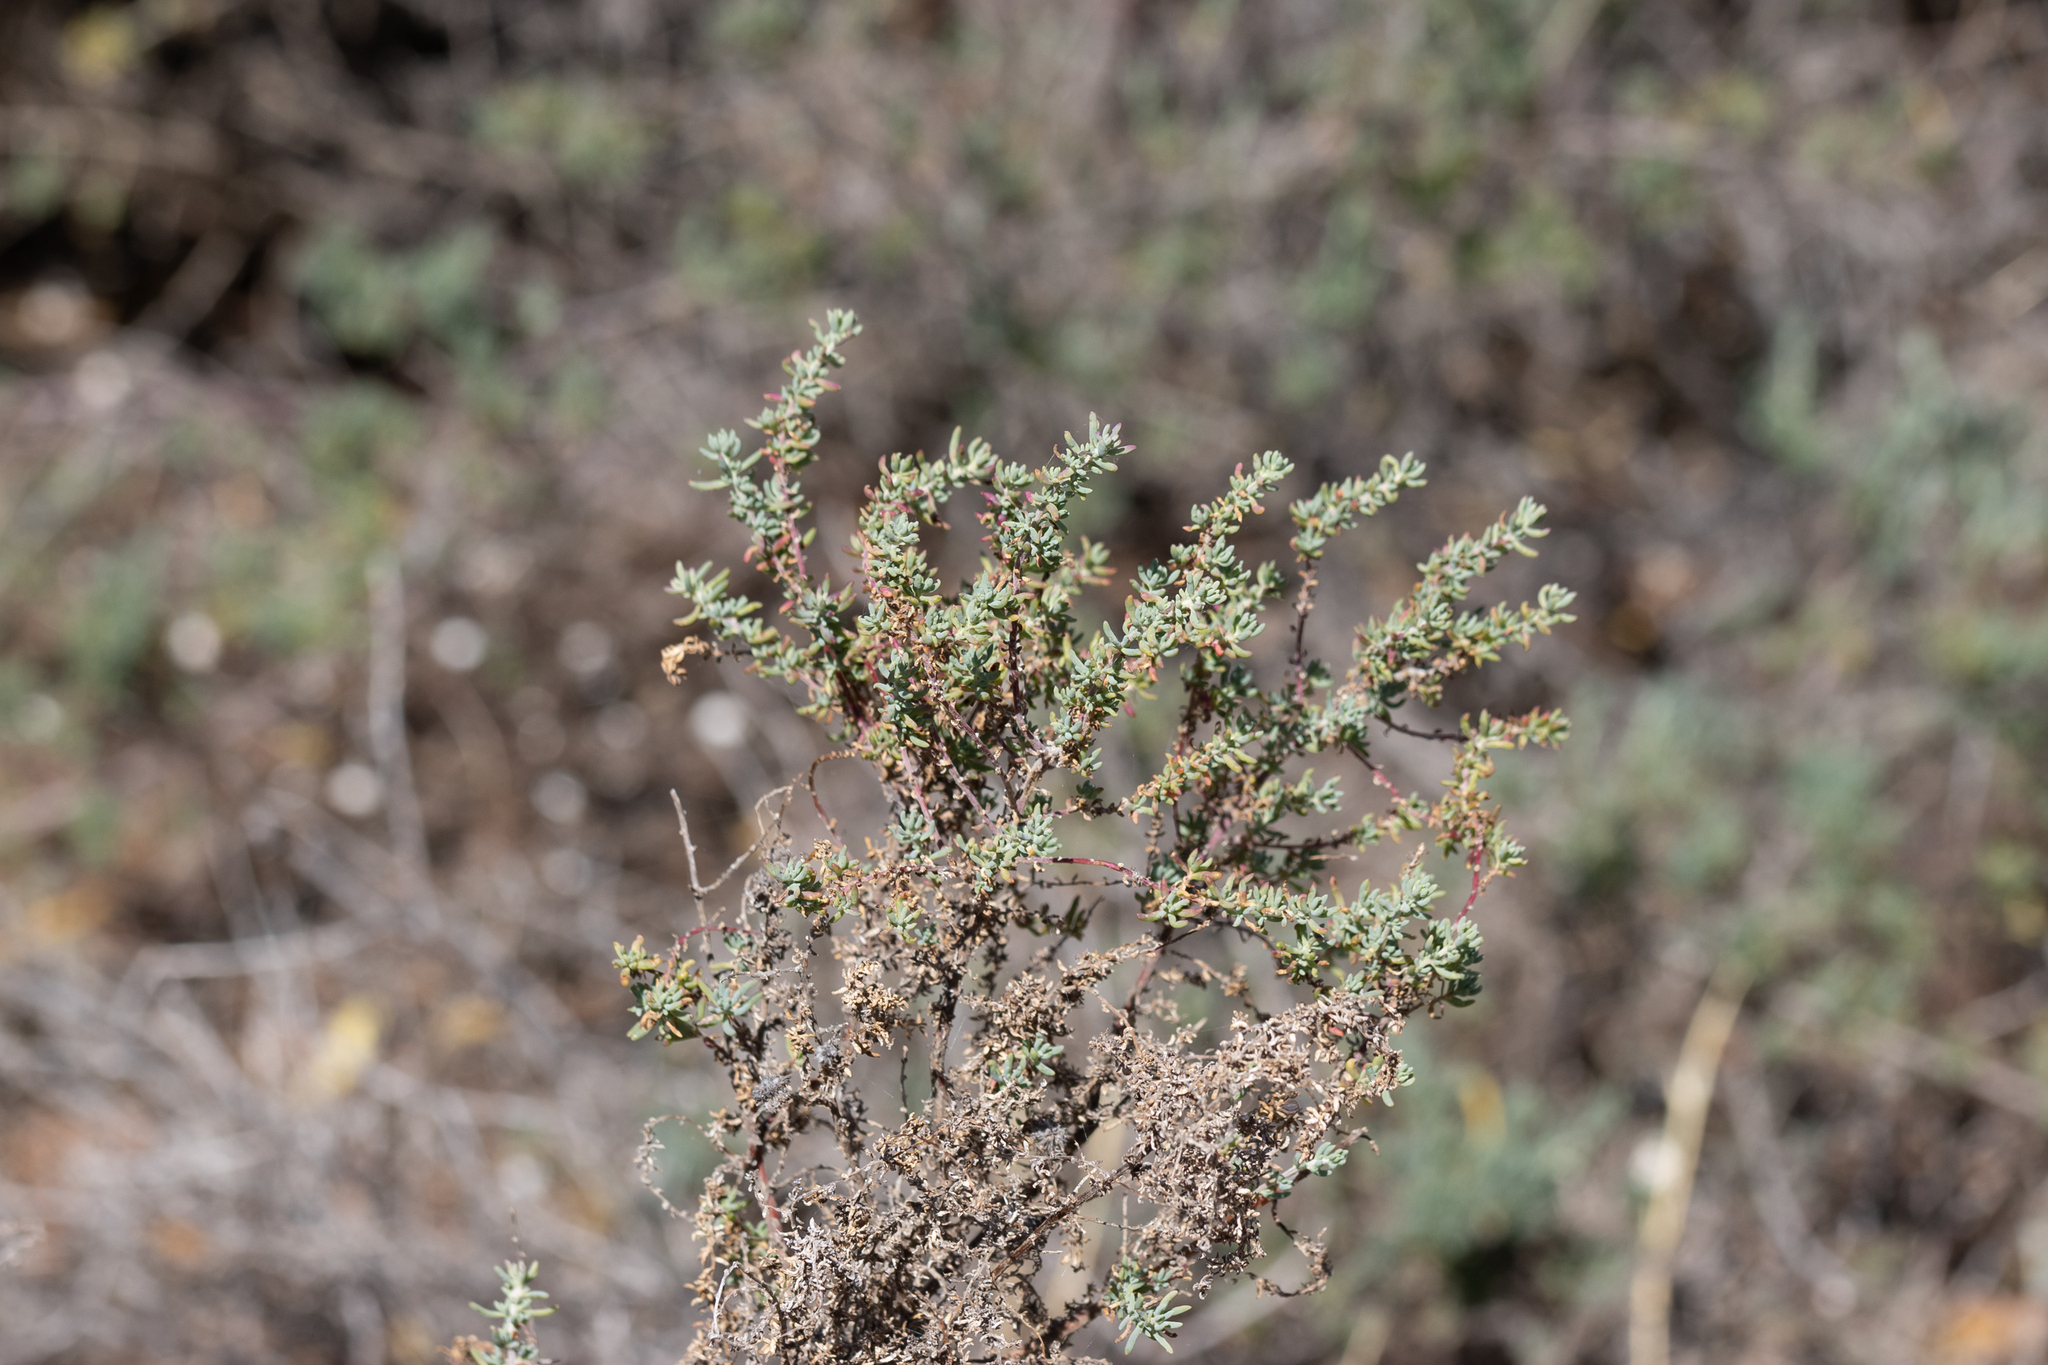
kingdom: Plantae
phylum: Tracheophyta
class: Magnoliopsida
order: Caryophyllales
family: Amaranthaceae
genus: Maireana
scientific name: Maireana brevifolia
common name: Eastern cottonbush
